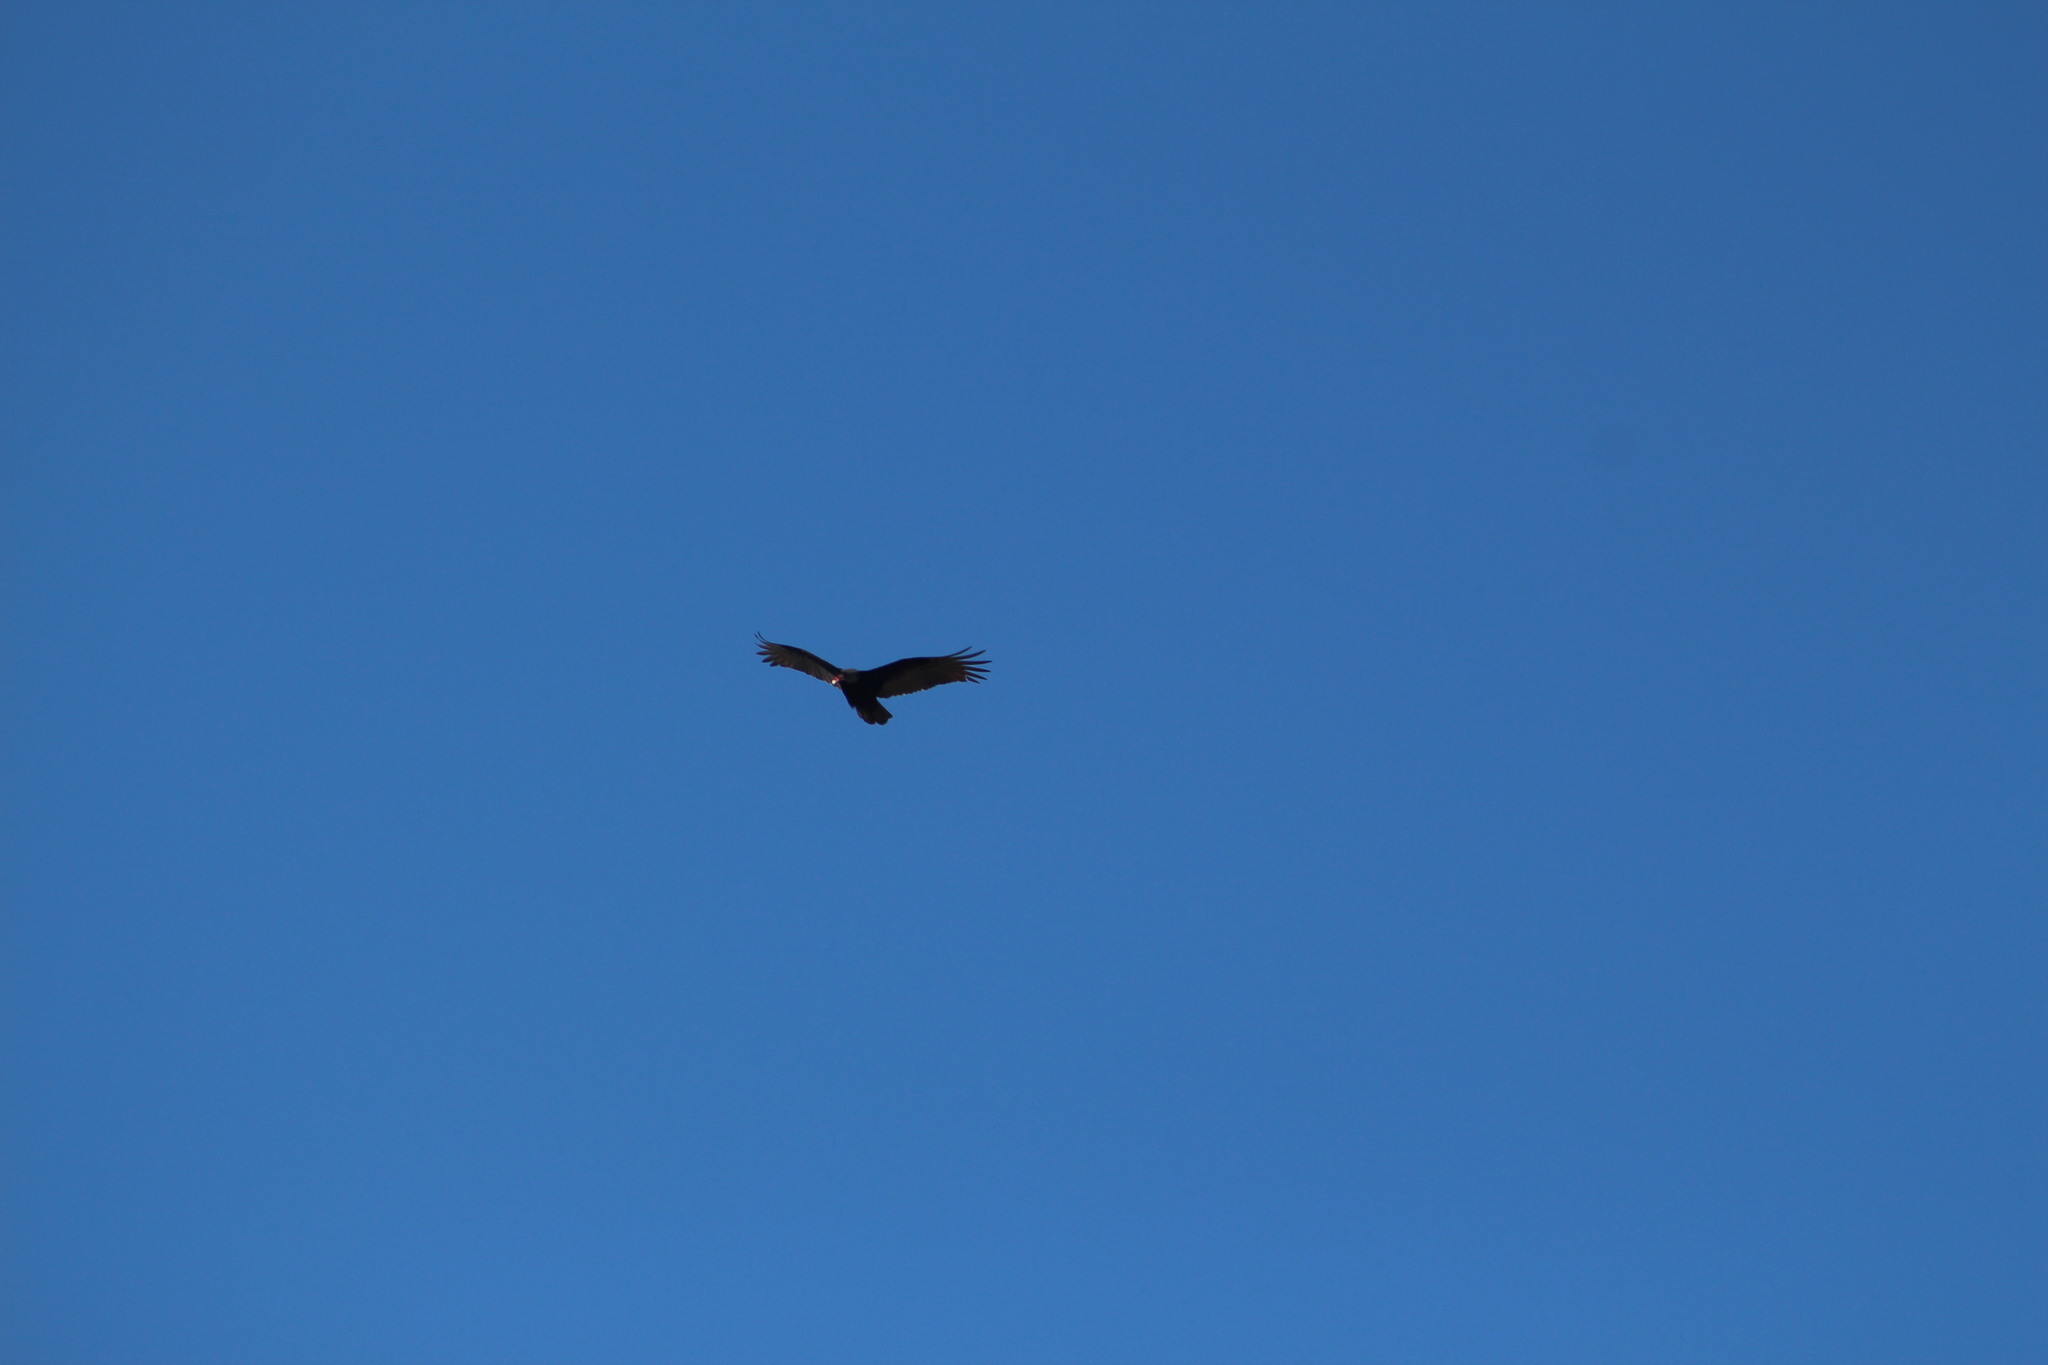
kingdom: Animalia
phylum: Chordata
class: Aves
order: Accipitriformes
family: Cathartidae
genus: Cathartes
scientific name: Cathartes aura
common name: Turkey vulture
